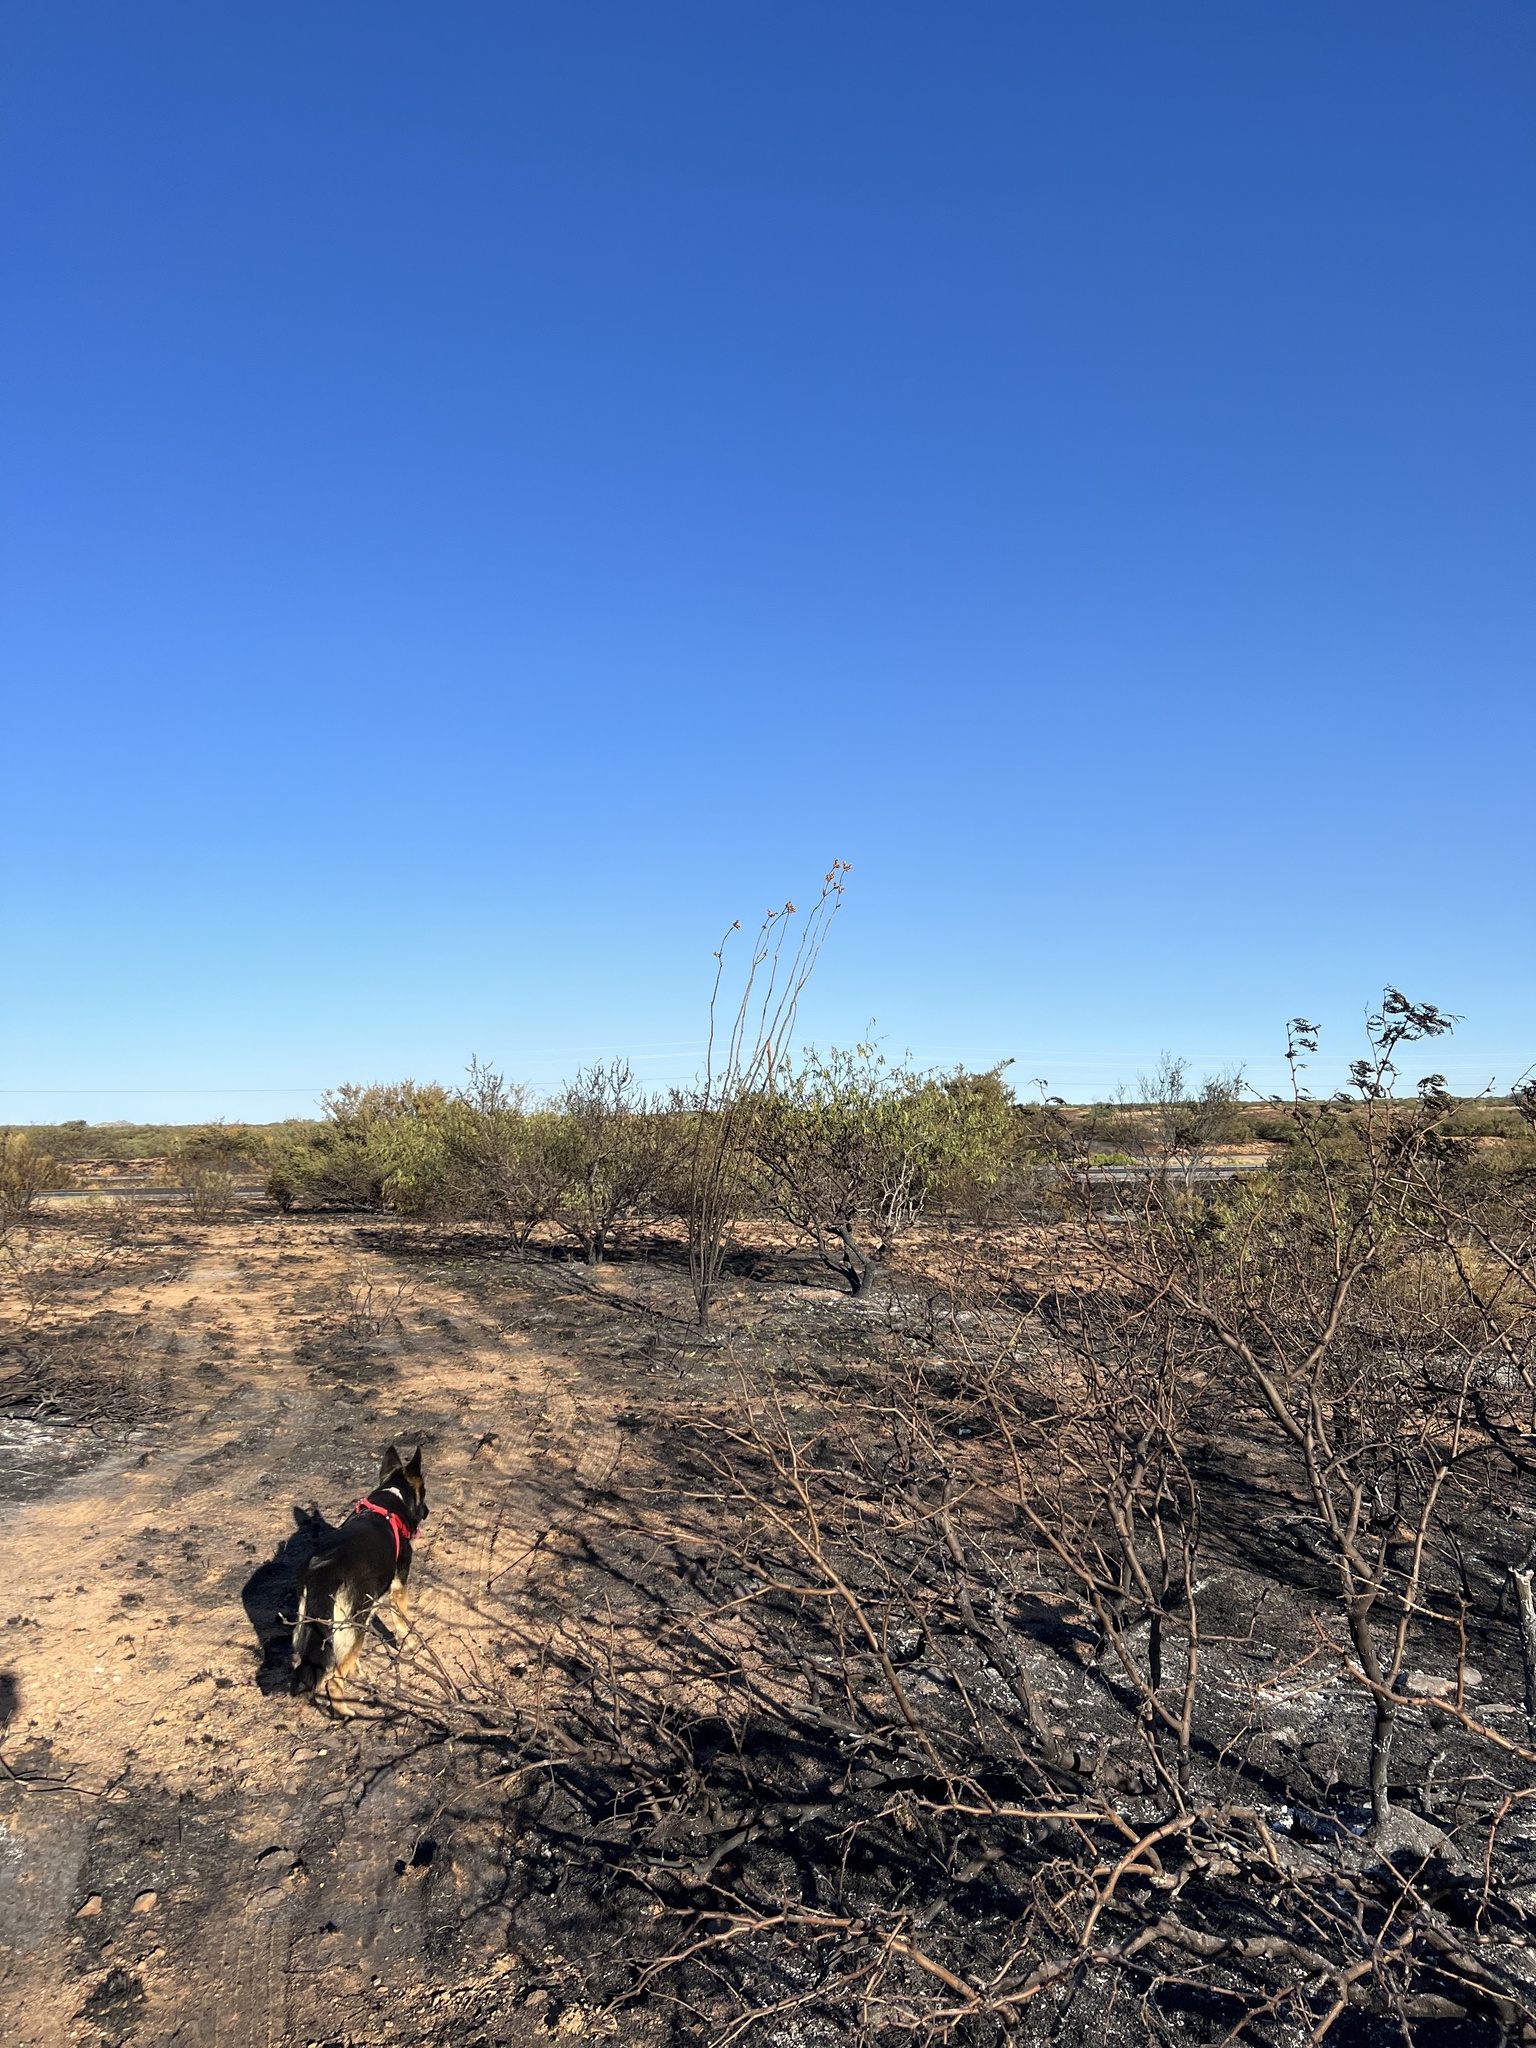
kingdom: Plantae
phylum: Tracheophyta
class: Magnoliopsida
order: Ericales
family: Fouquieriaceae
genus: Fouquieria
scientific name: Fouquieria splendens
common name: Vine-cactus
